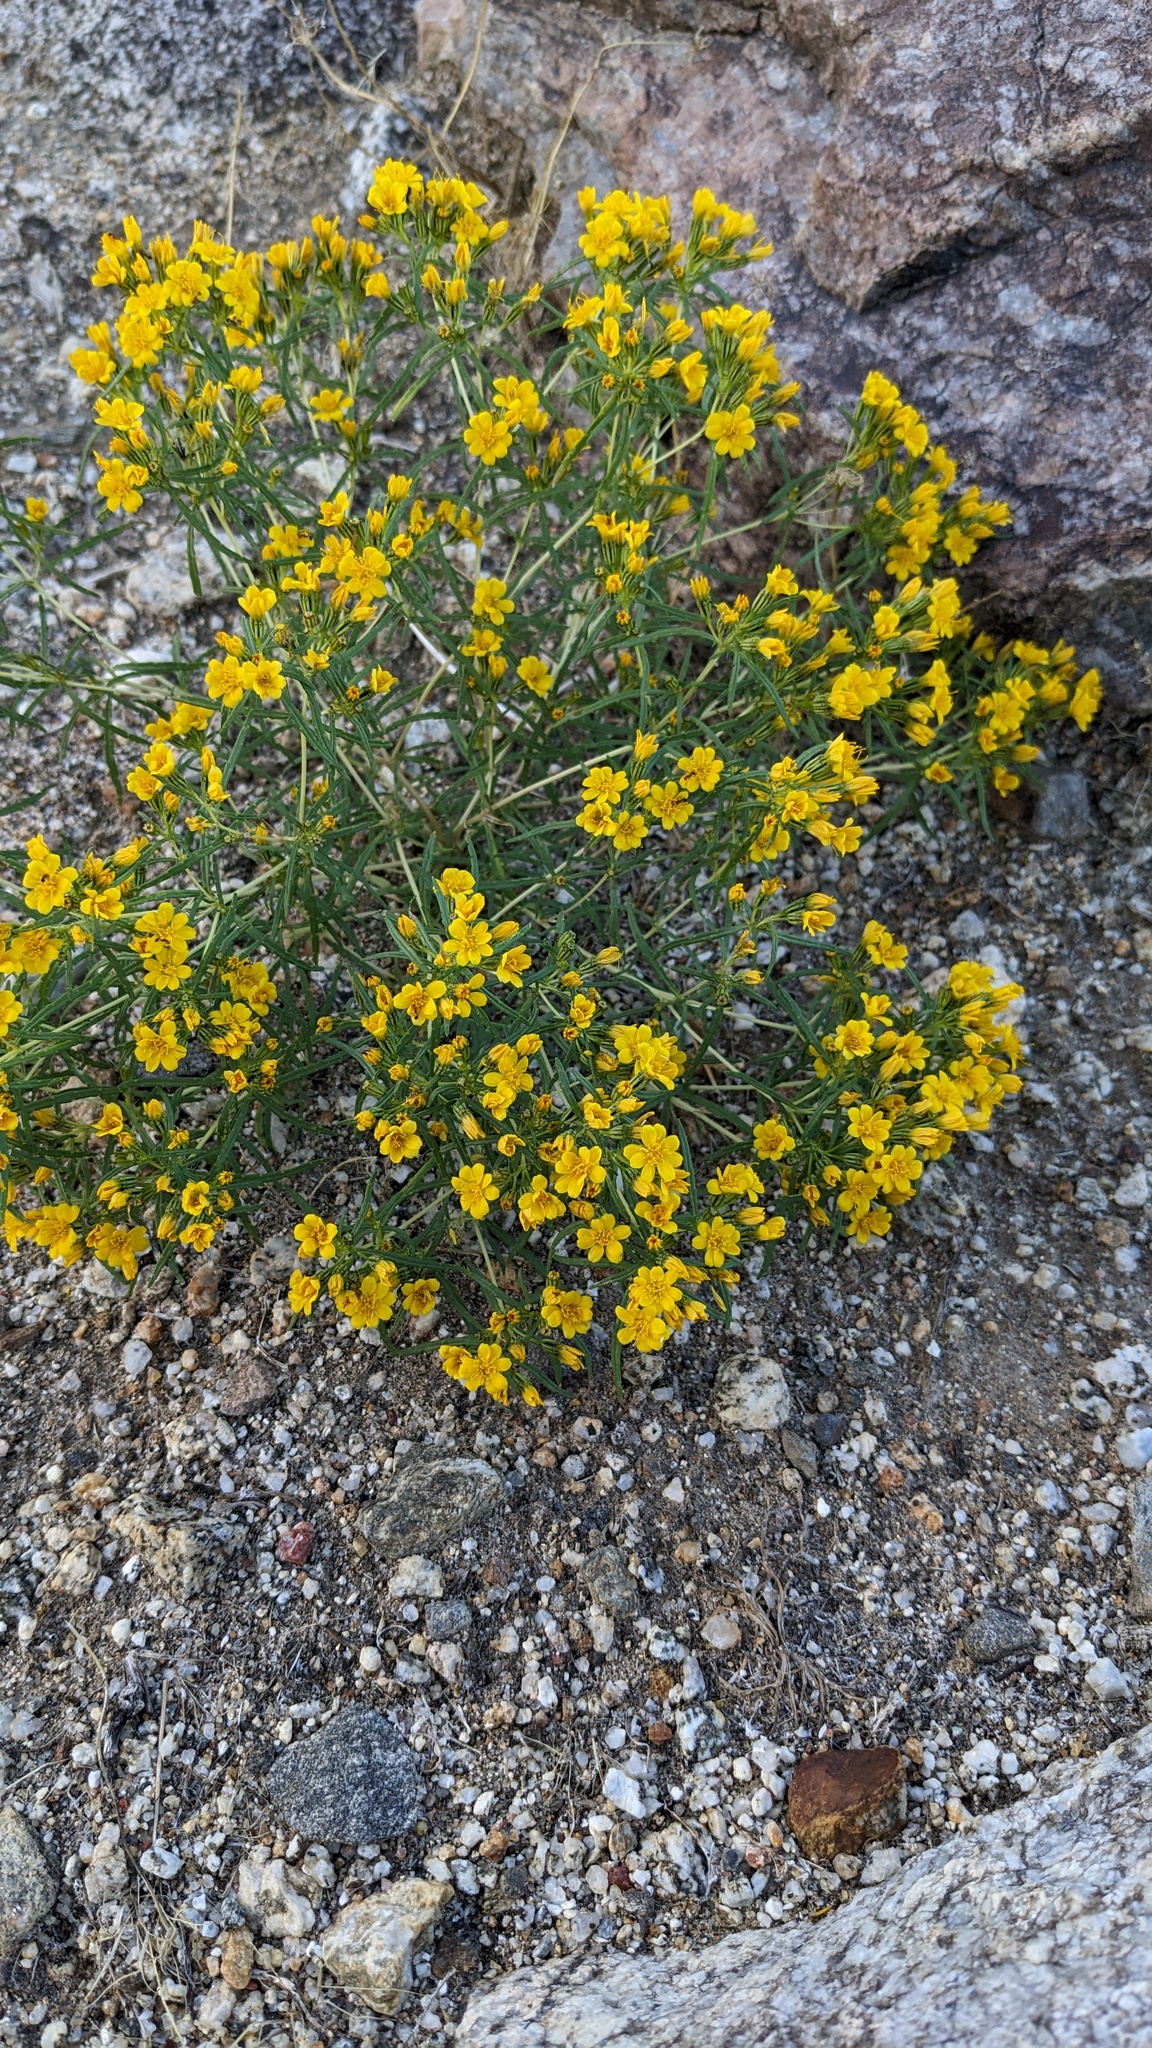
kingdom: Plantae
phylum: Tracheophyta
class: Magnoliopsida
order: Asterales
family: Asteraceae
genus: Pectis
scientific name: Pectis papposa
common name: Many-bristle chinchweed
